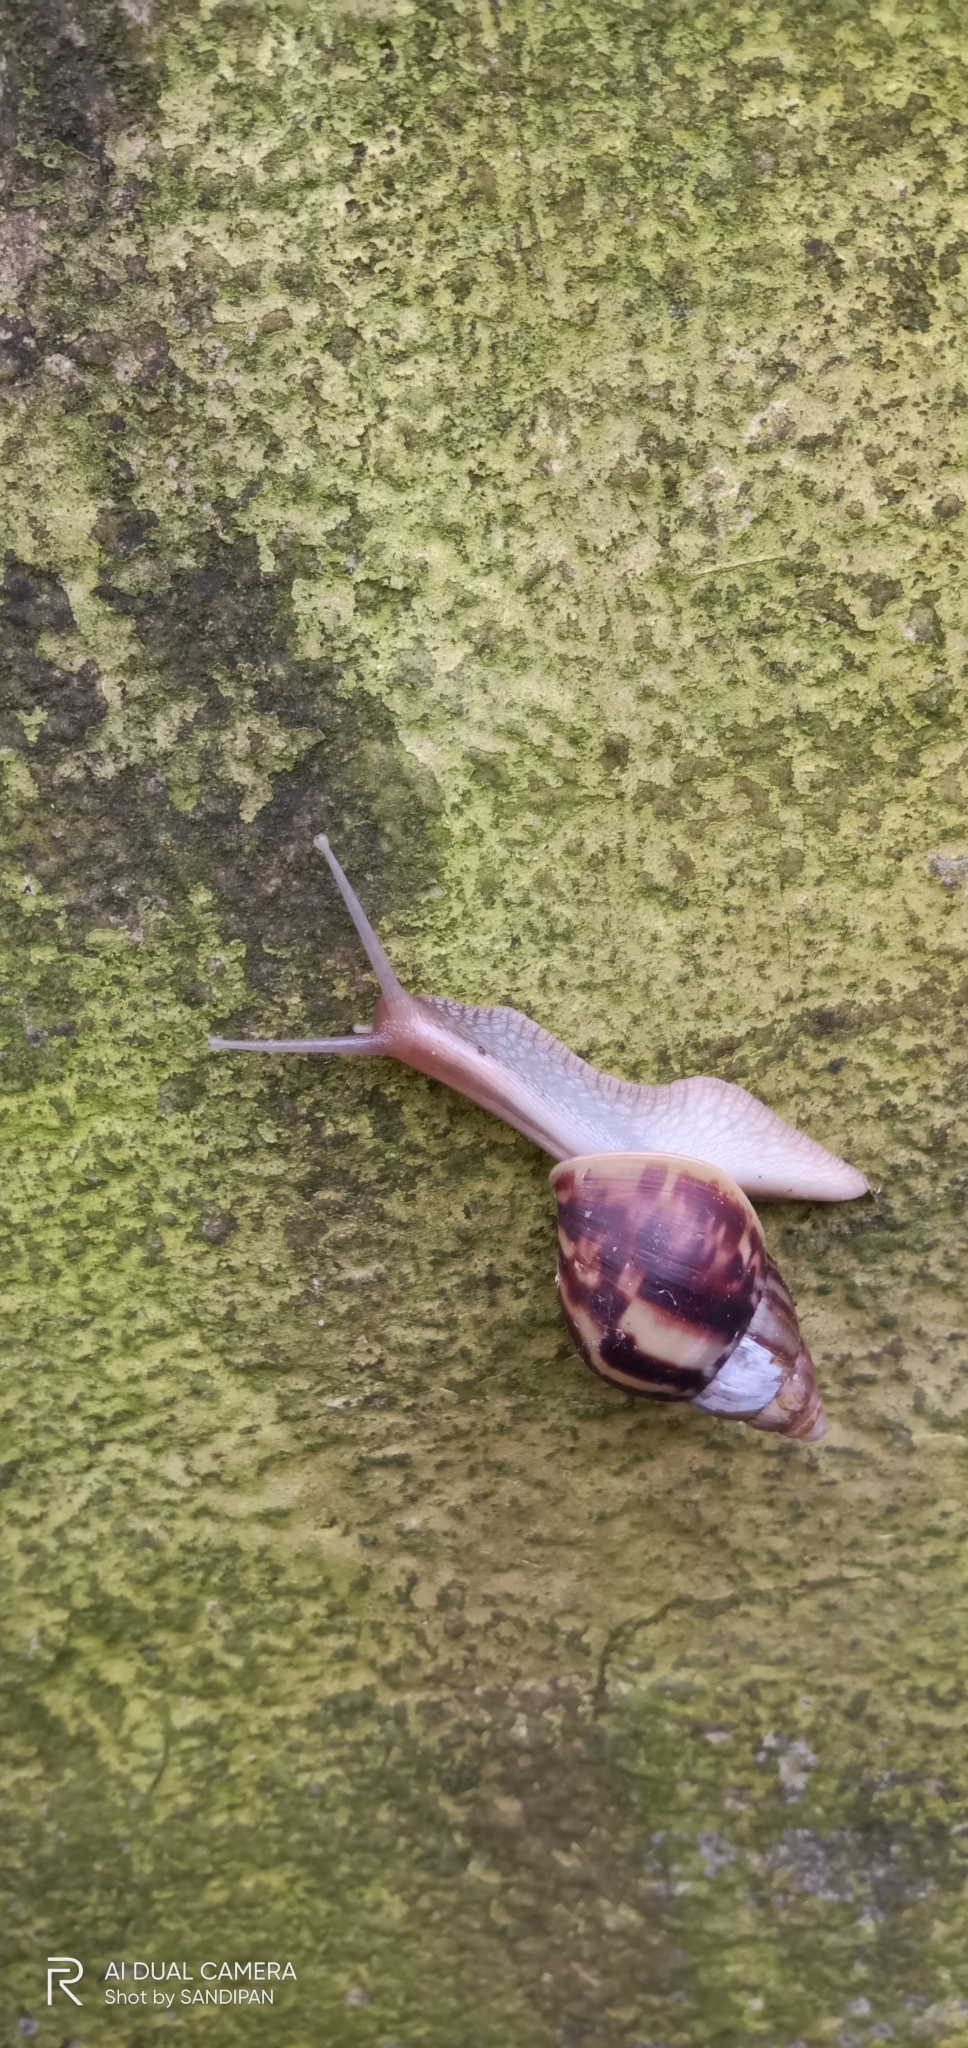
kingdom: Animalia
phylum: Mollusca
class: Gastropoda
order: Stylommatophora
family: Achatinidae
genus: Lissachatina
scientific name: Lissachatina fulica
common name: Giant african snail
